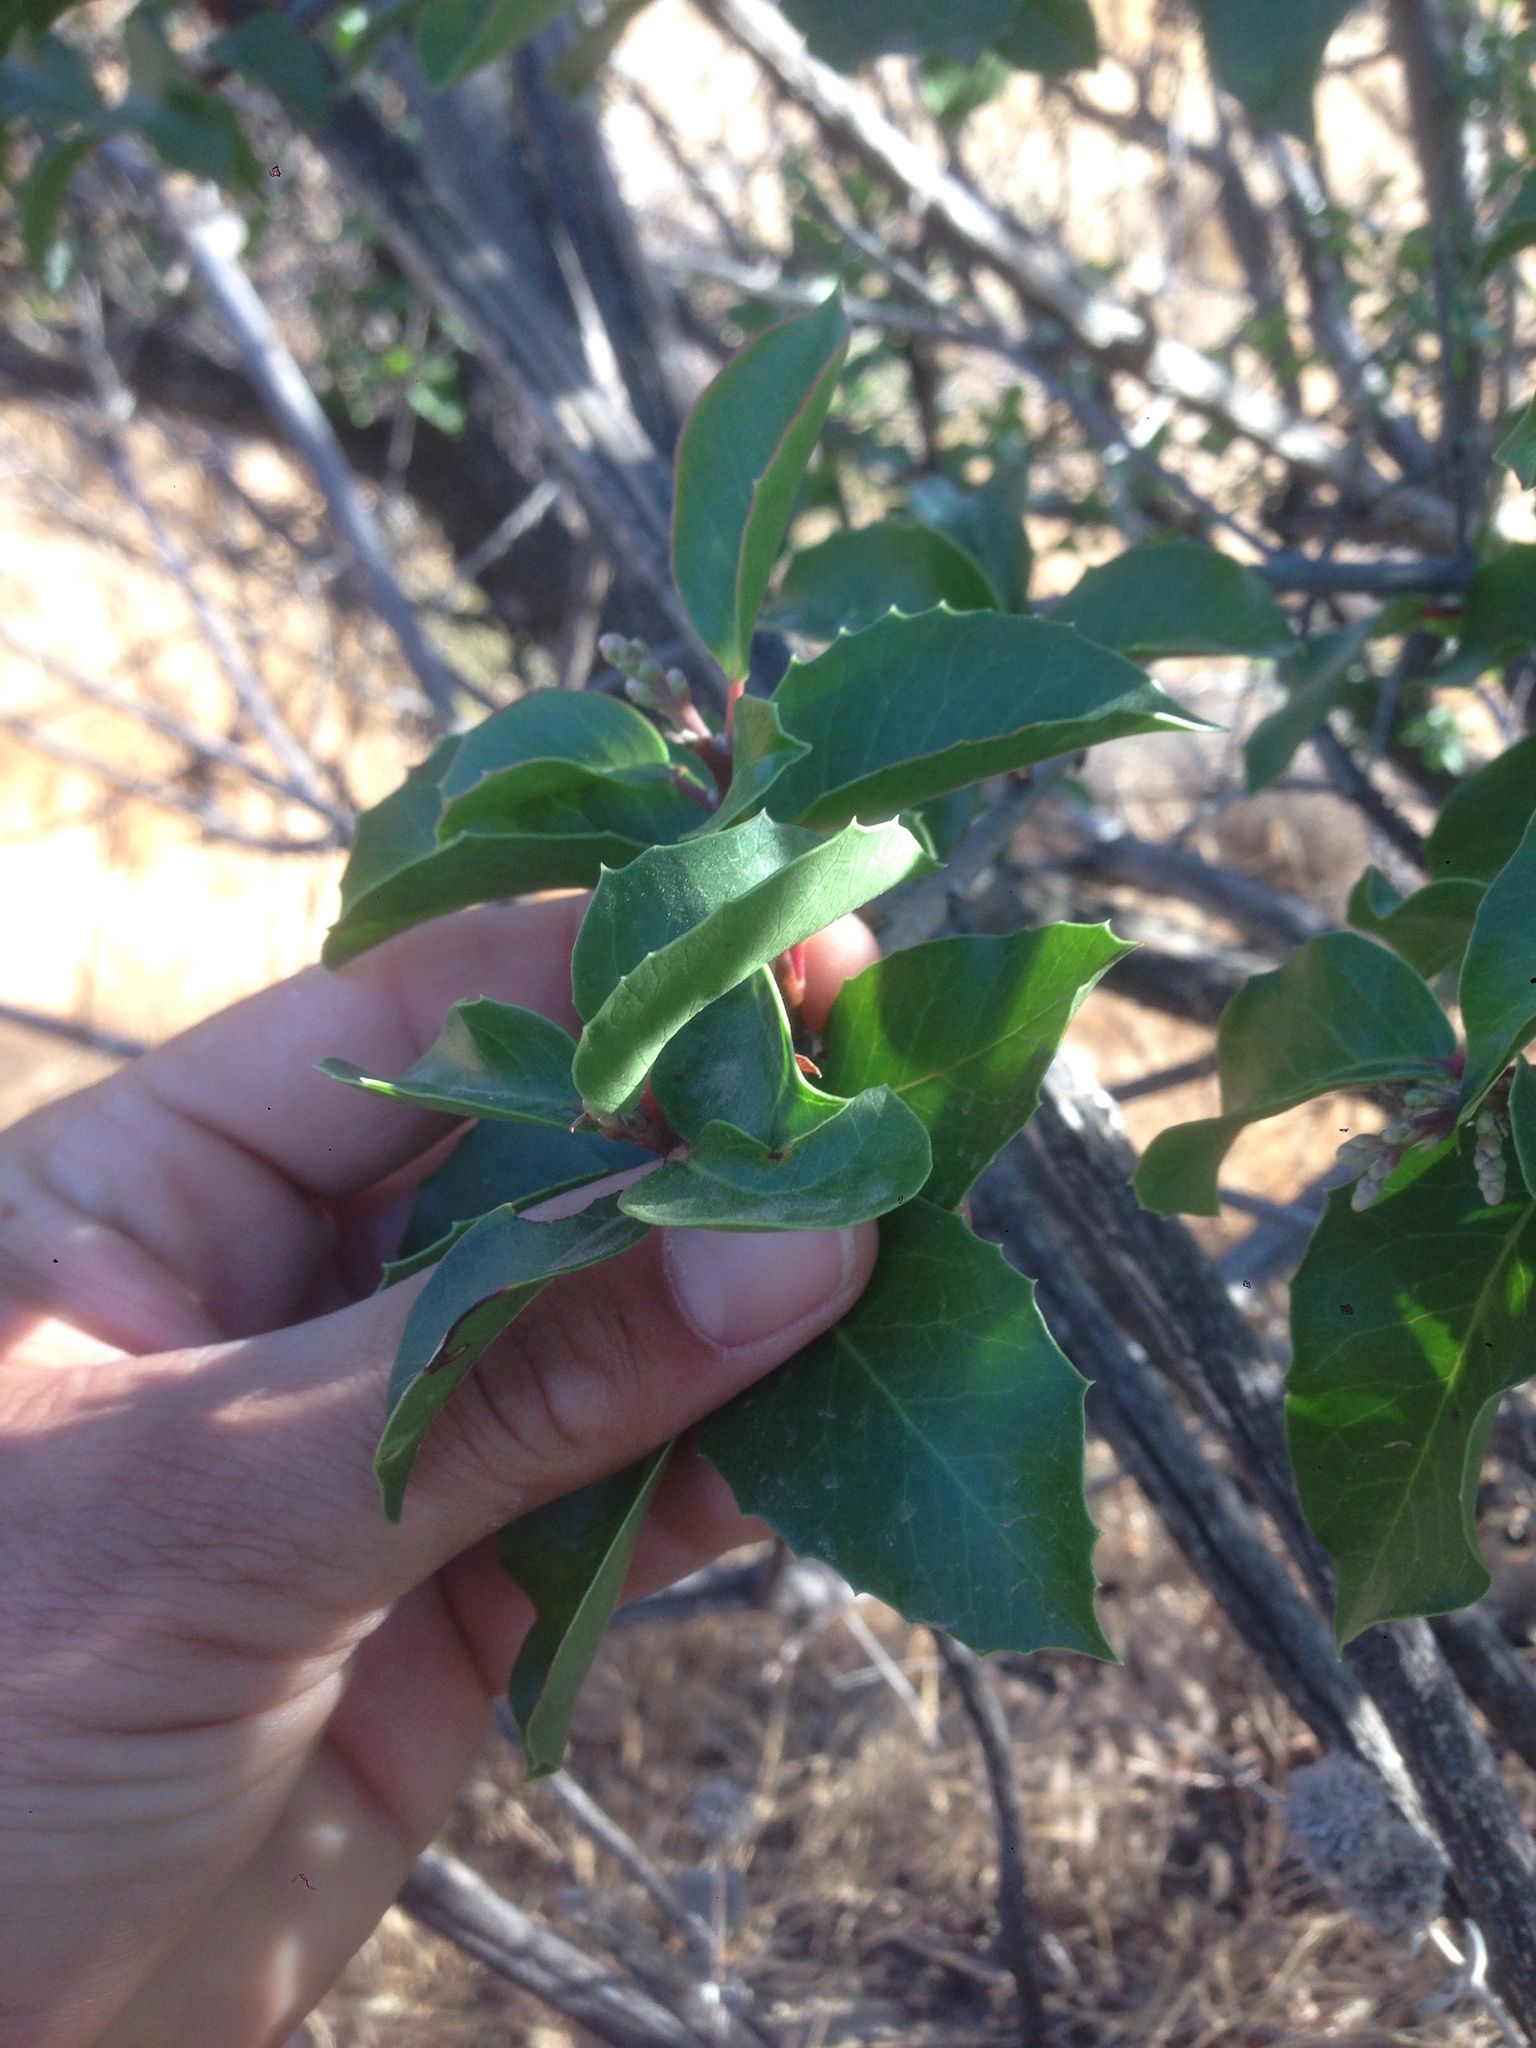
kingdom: Plantae
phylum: Tracheophyta
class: Magnoliopsida
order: Sapindales
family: Anacardiaceae
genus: Rhus
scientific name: Rhus
